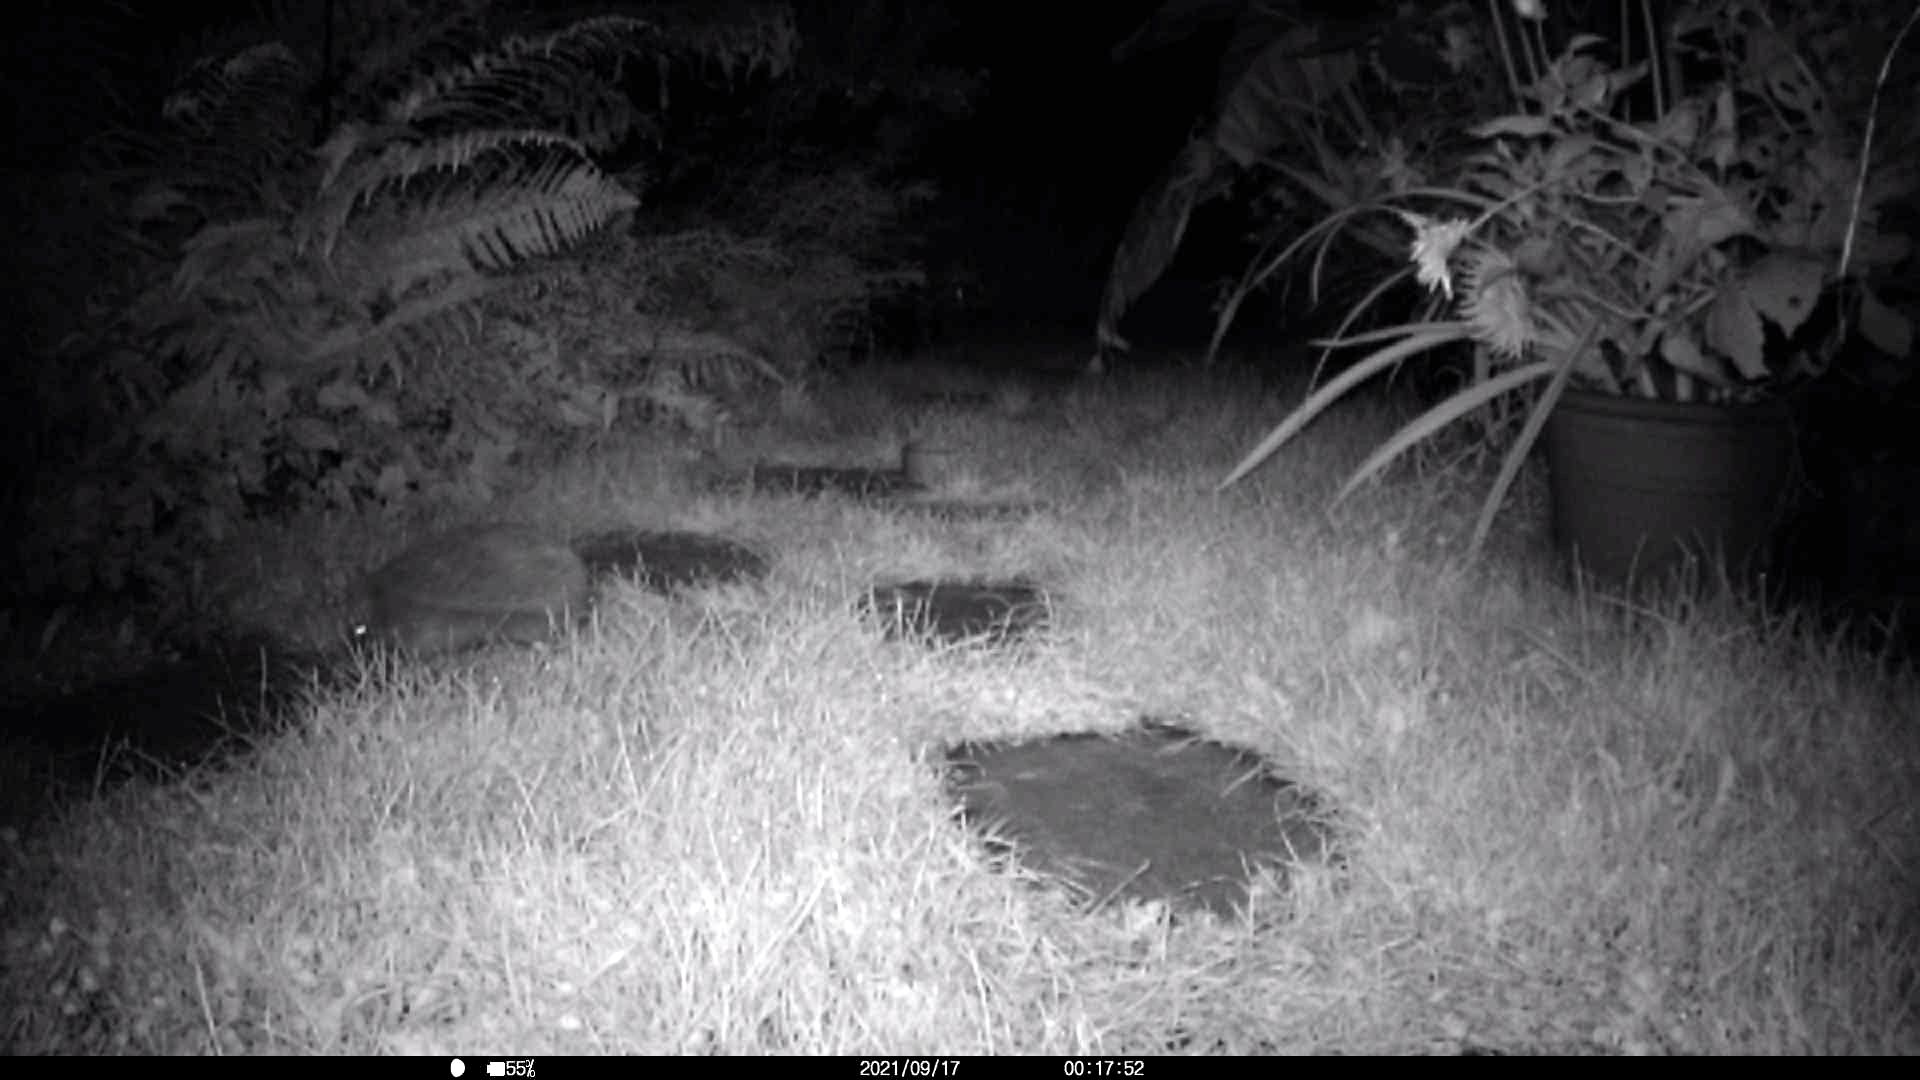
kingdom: Animalia
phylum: Chordata
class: Mammalia
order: Erinaceomorpha
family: Erinaceidae
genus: Erinaceus
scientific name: Erinaceus europaeus
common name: West european hedgehog
